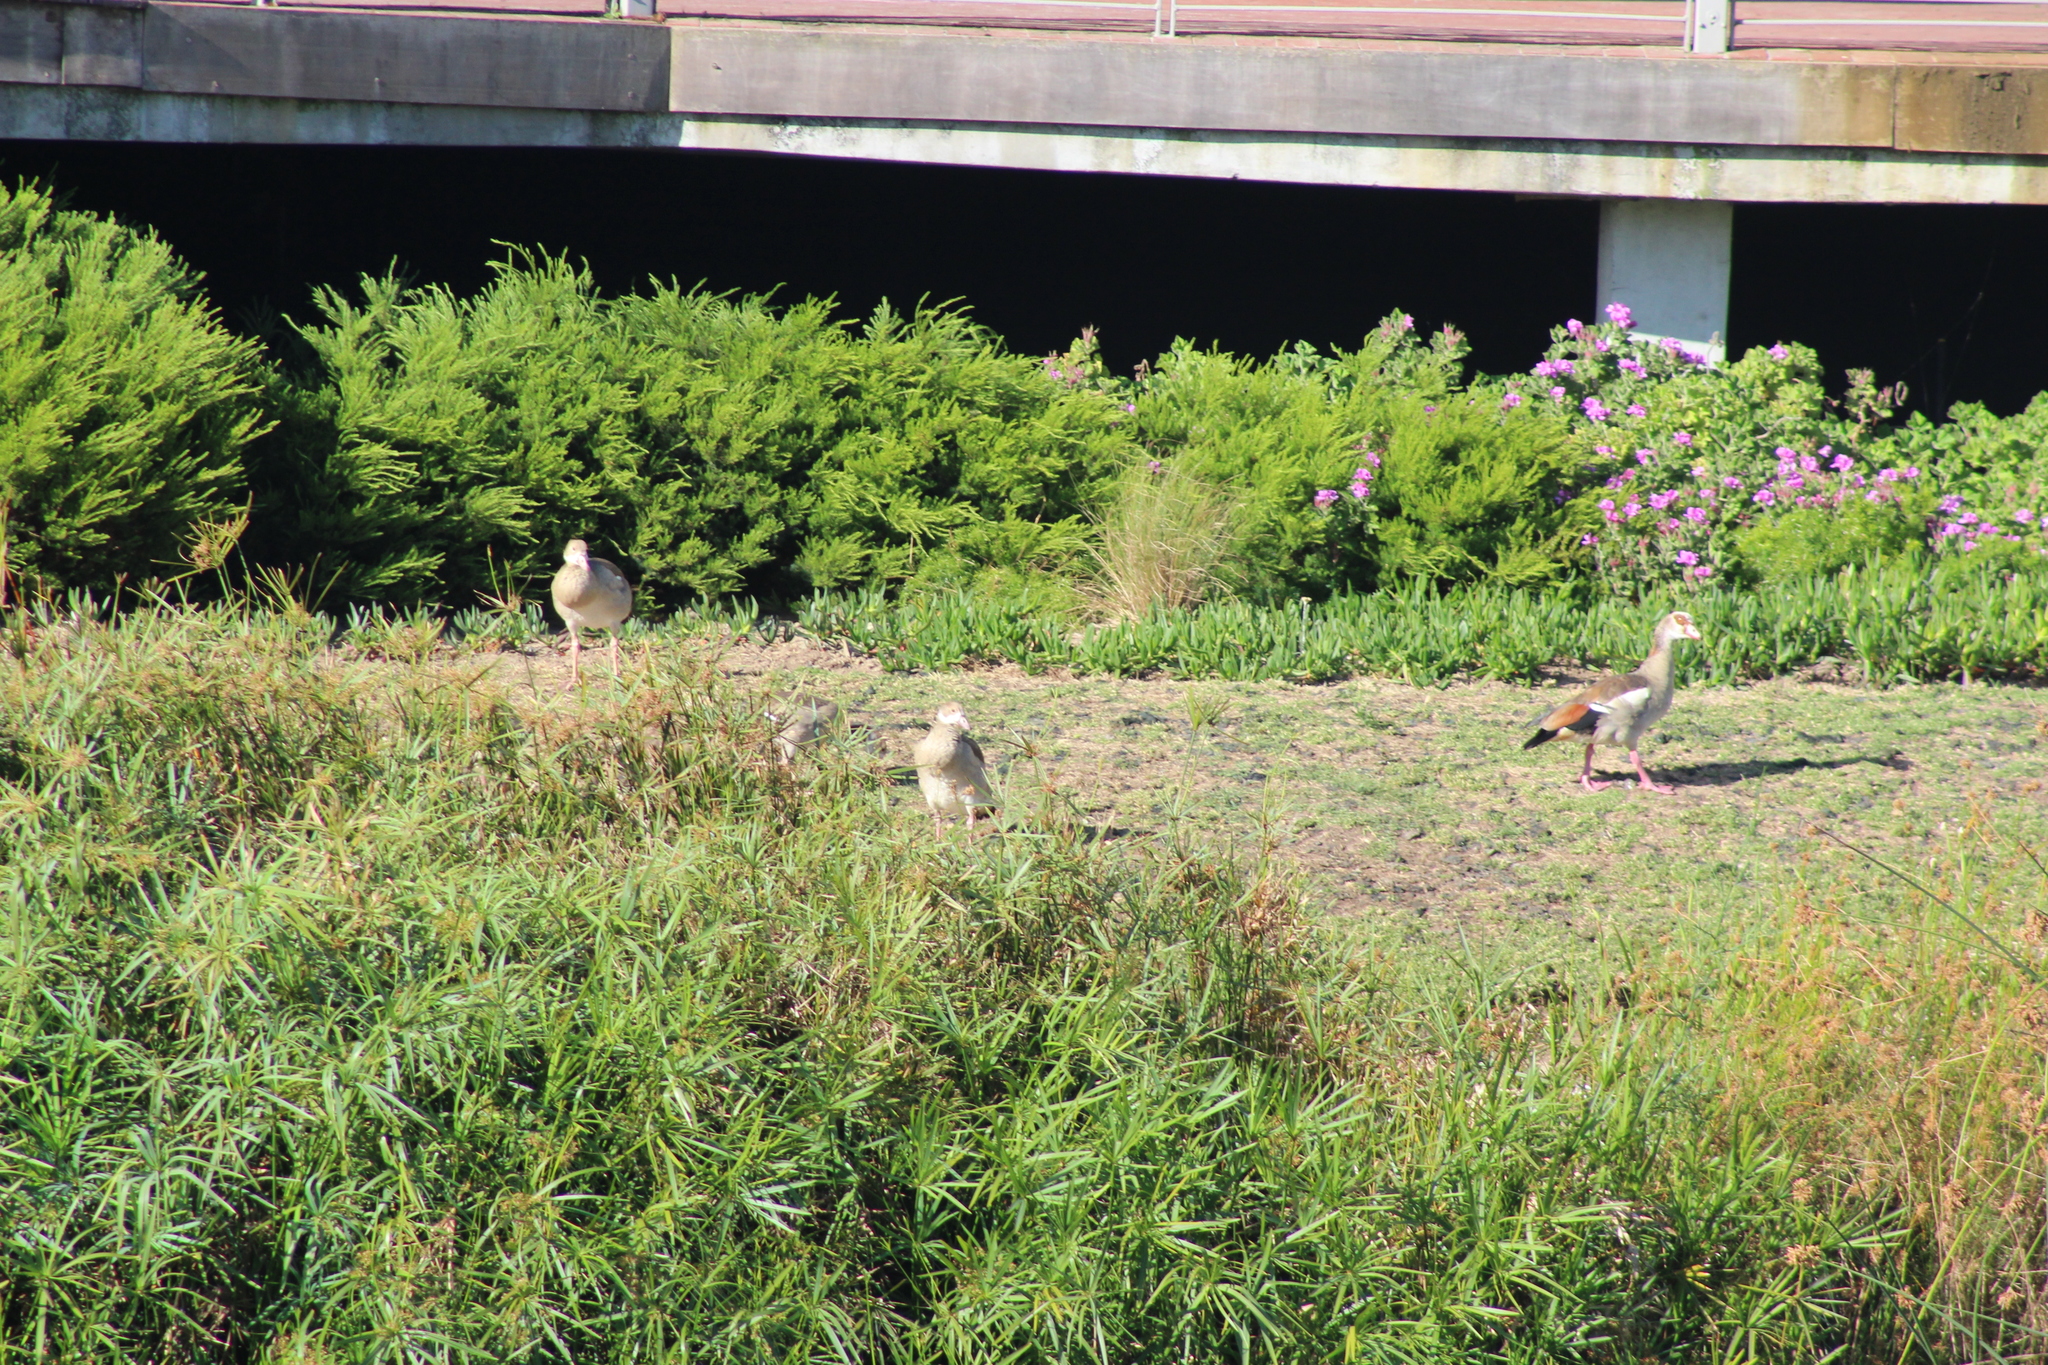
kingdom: Animalia
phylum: Chordata
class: Aves
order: Anseriformes
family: Anatidae
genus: Alopochen
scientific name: Alopochen aegyptiaca
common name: Egyptian goose
